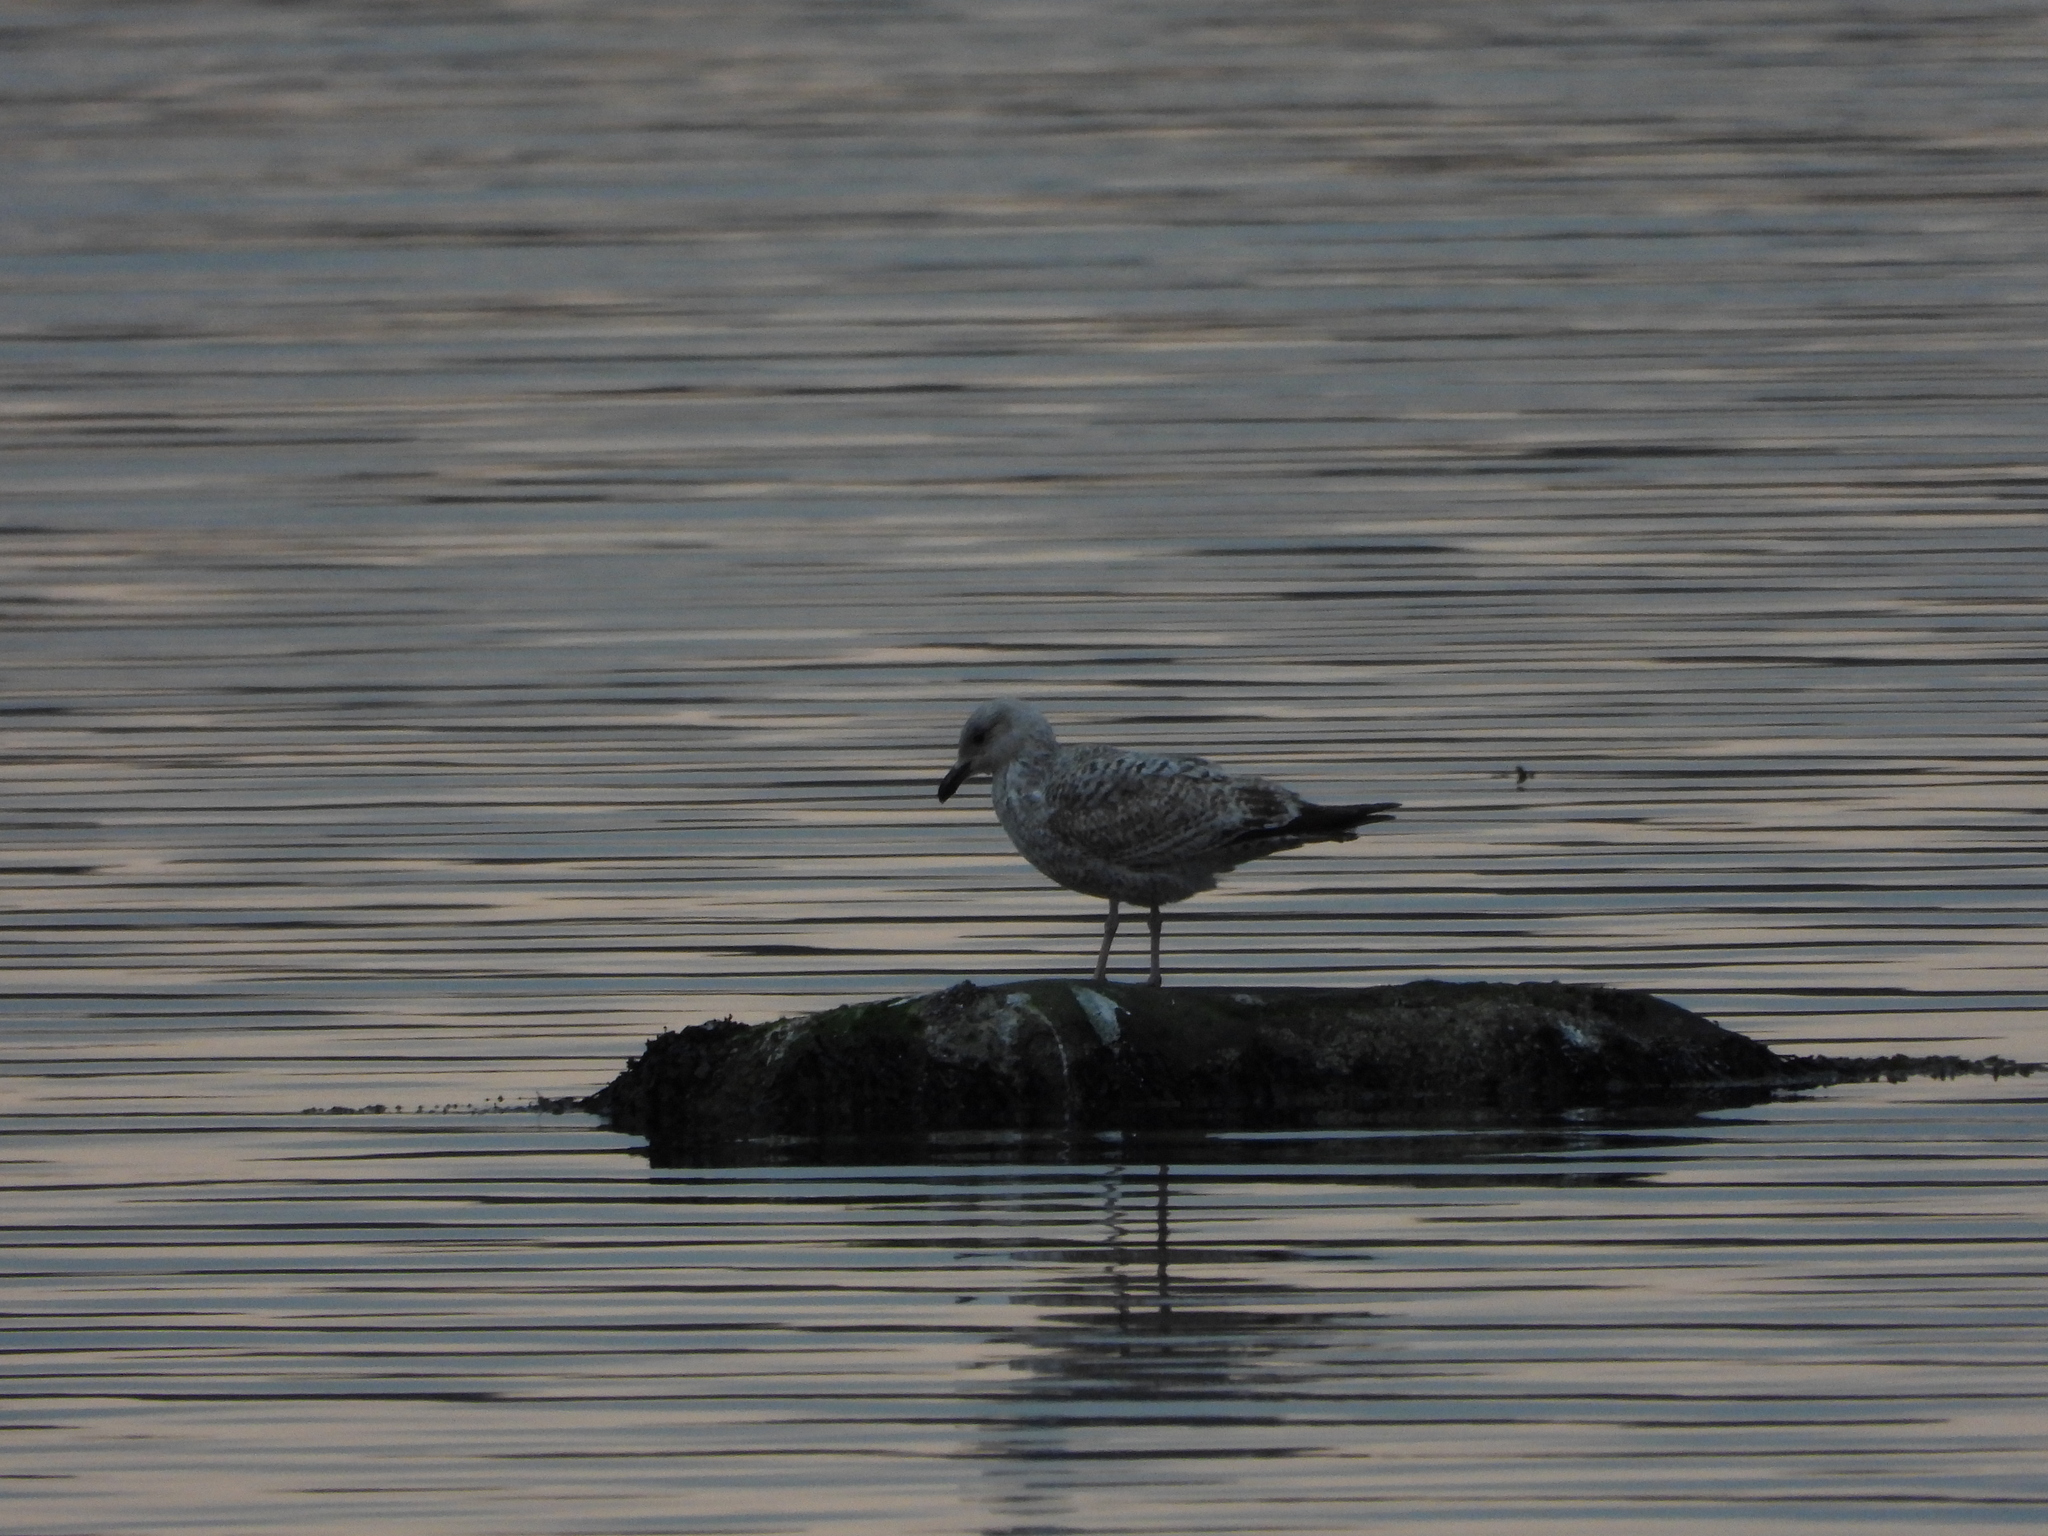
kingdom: Animalia
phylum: Chordata
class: Aves
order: Charadriiformes
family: Laridae
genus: Larus
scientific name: Larus argentatus
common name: Herring gull
